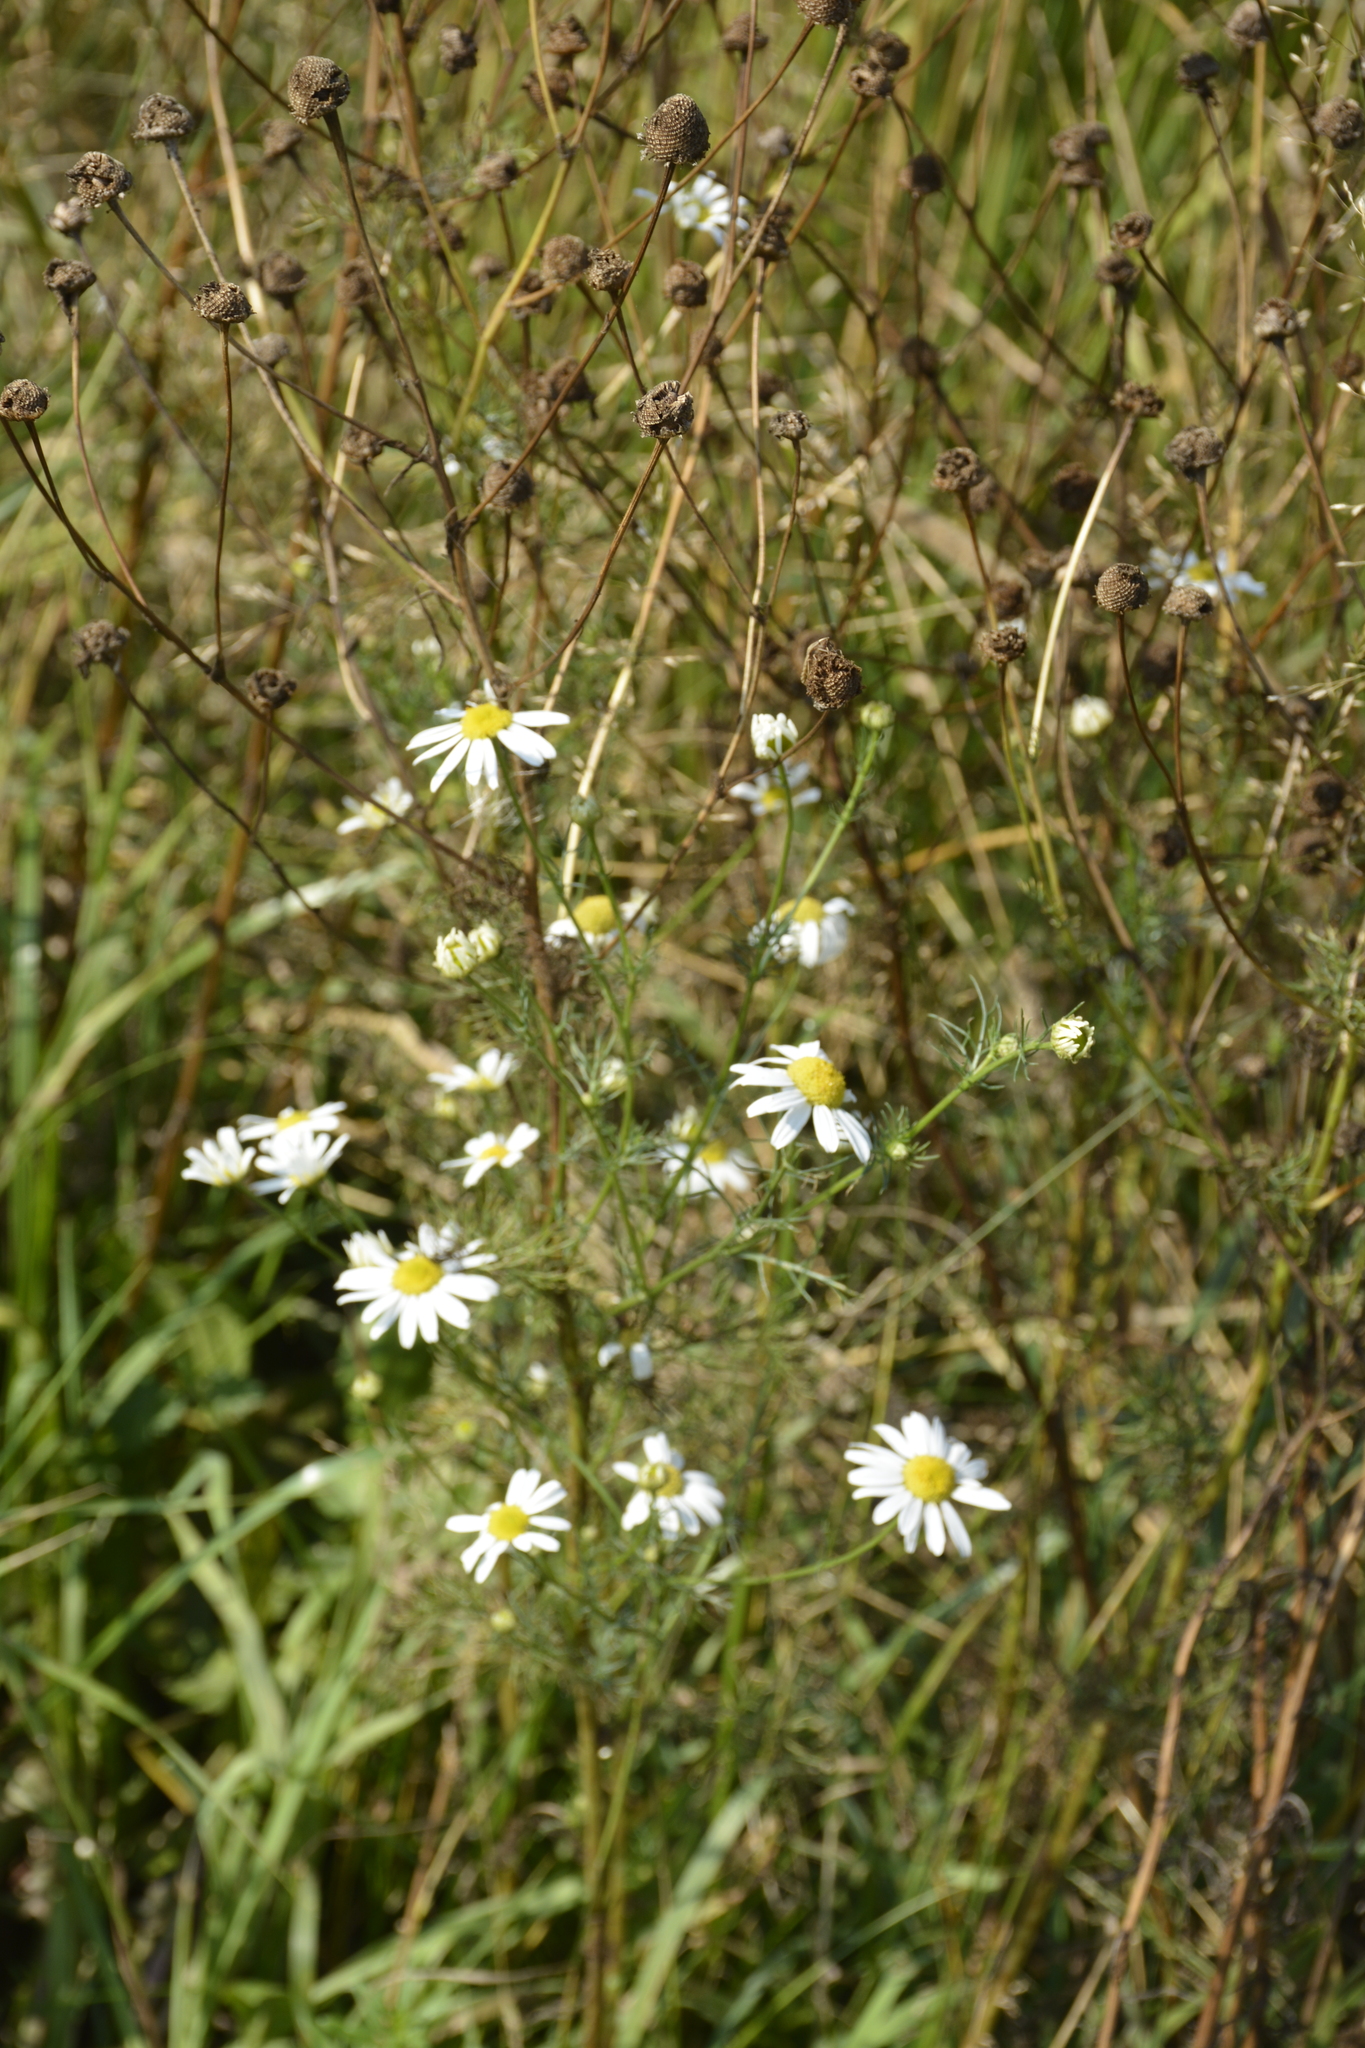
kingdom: Plantae
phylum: Tracheophyta
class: Magnoliopsida
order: Asterales
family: Asteraceae
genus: Tripleurospermum
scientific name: Tripleurospermum inodorum
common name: Scentless mayweed
